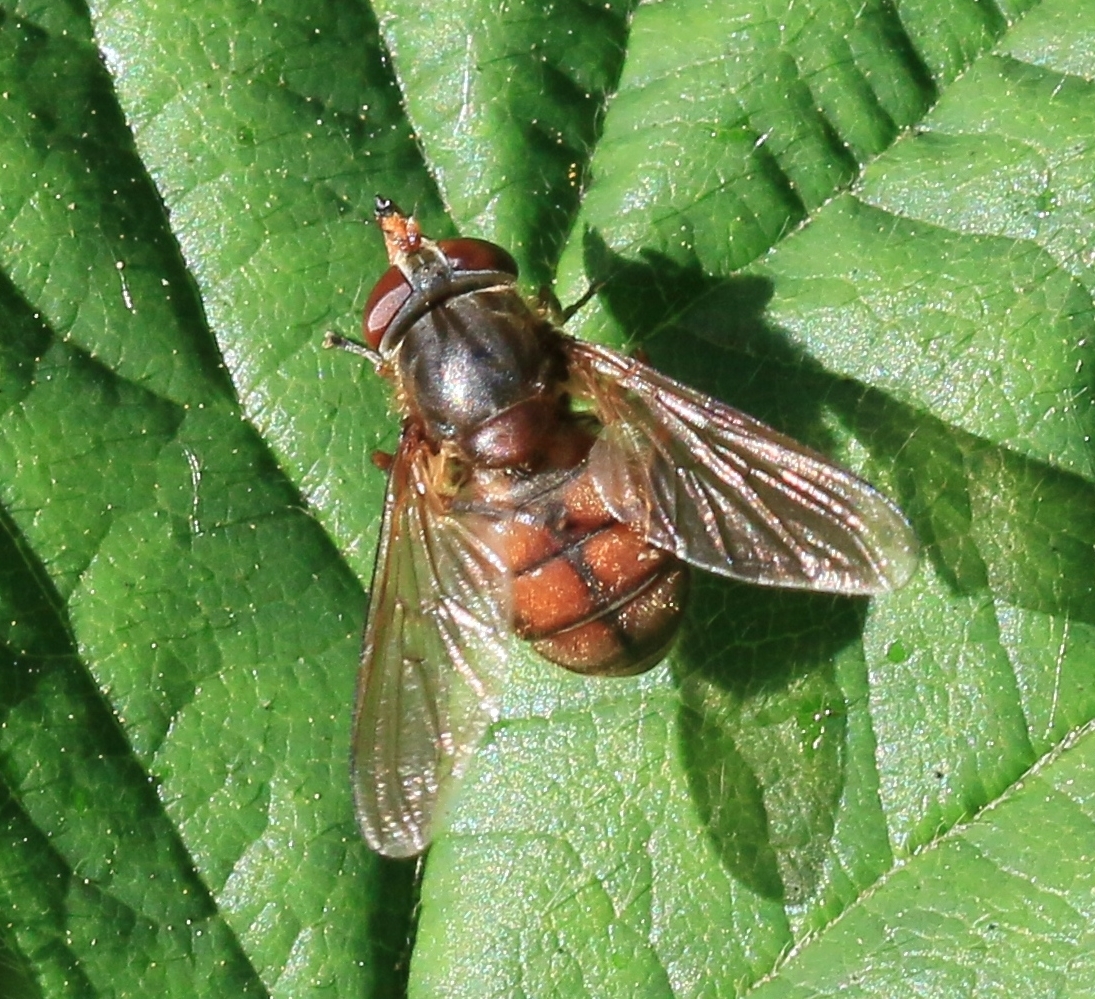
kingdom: Animalia
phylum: Arthropoda
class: Insecta
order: Diptera
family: Syrphidae
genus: Rhingia
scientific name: Rhingia campestris
